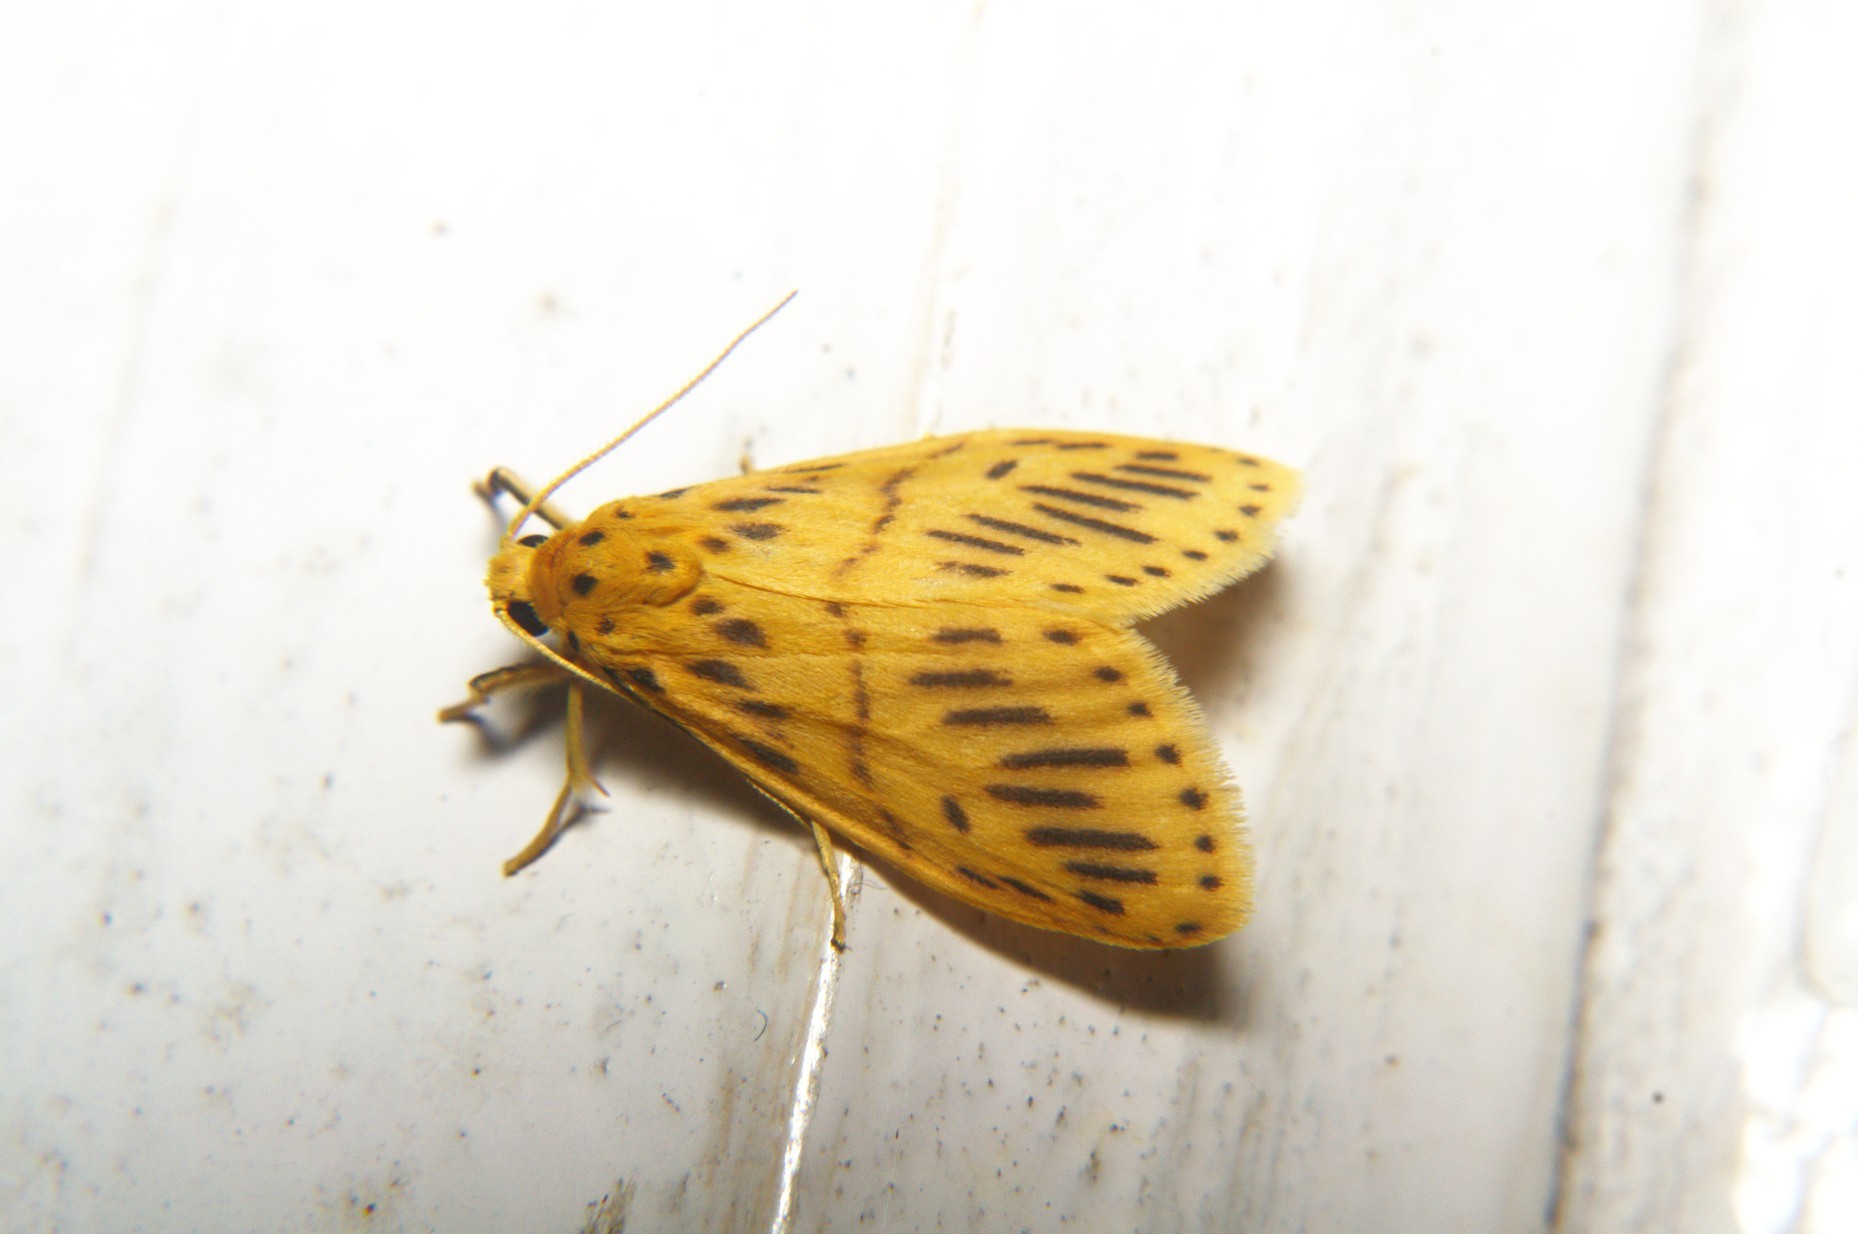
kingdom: Animalia
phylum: Arthropoda
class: Insecta
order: Lepidoptera
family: Erebidae
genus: Miltochrista
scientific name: Miltochrista strigipennis
